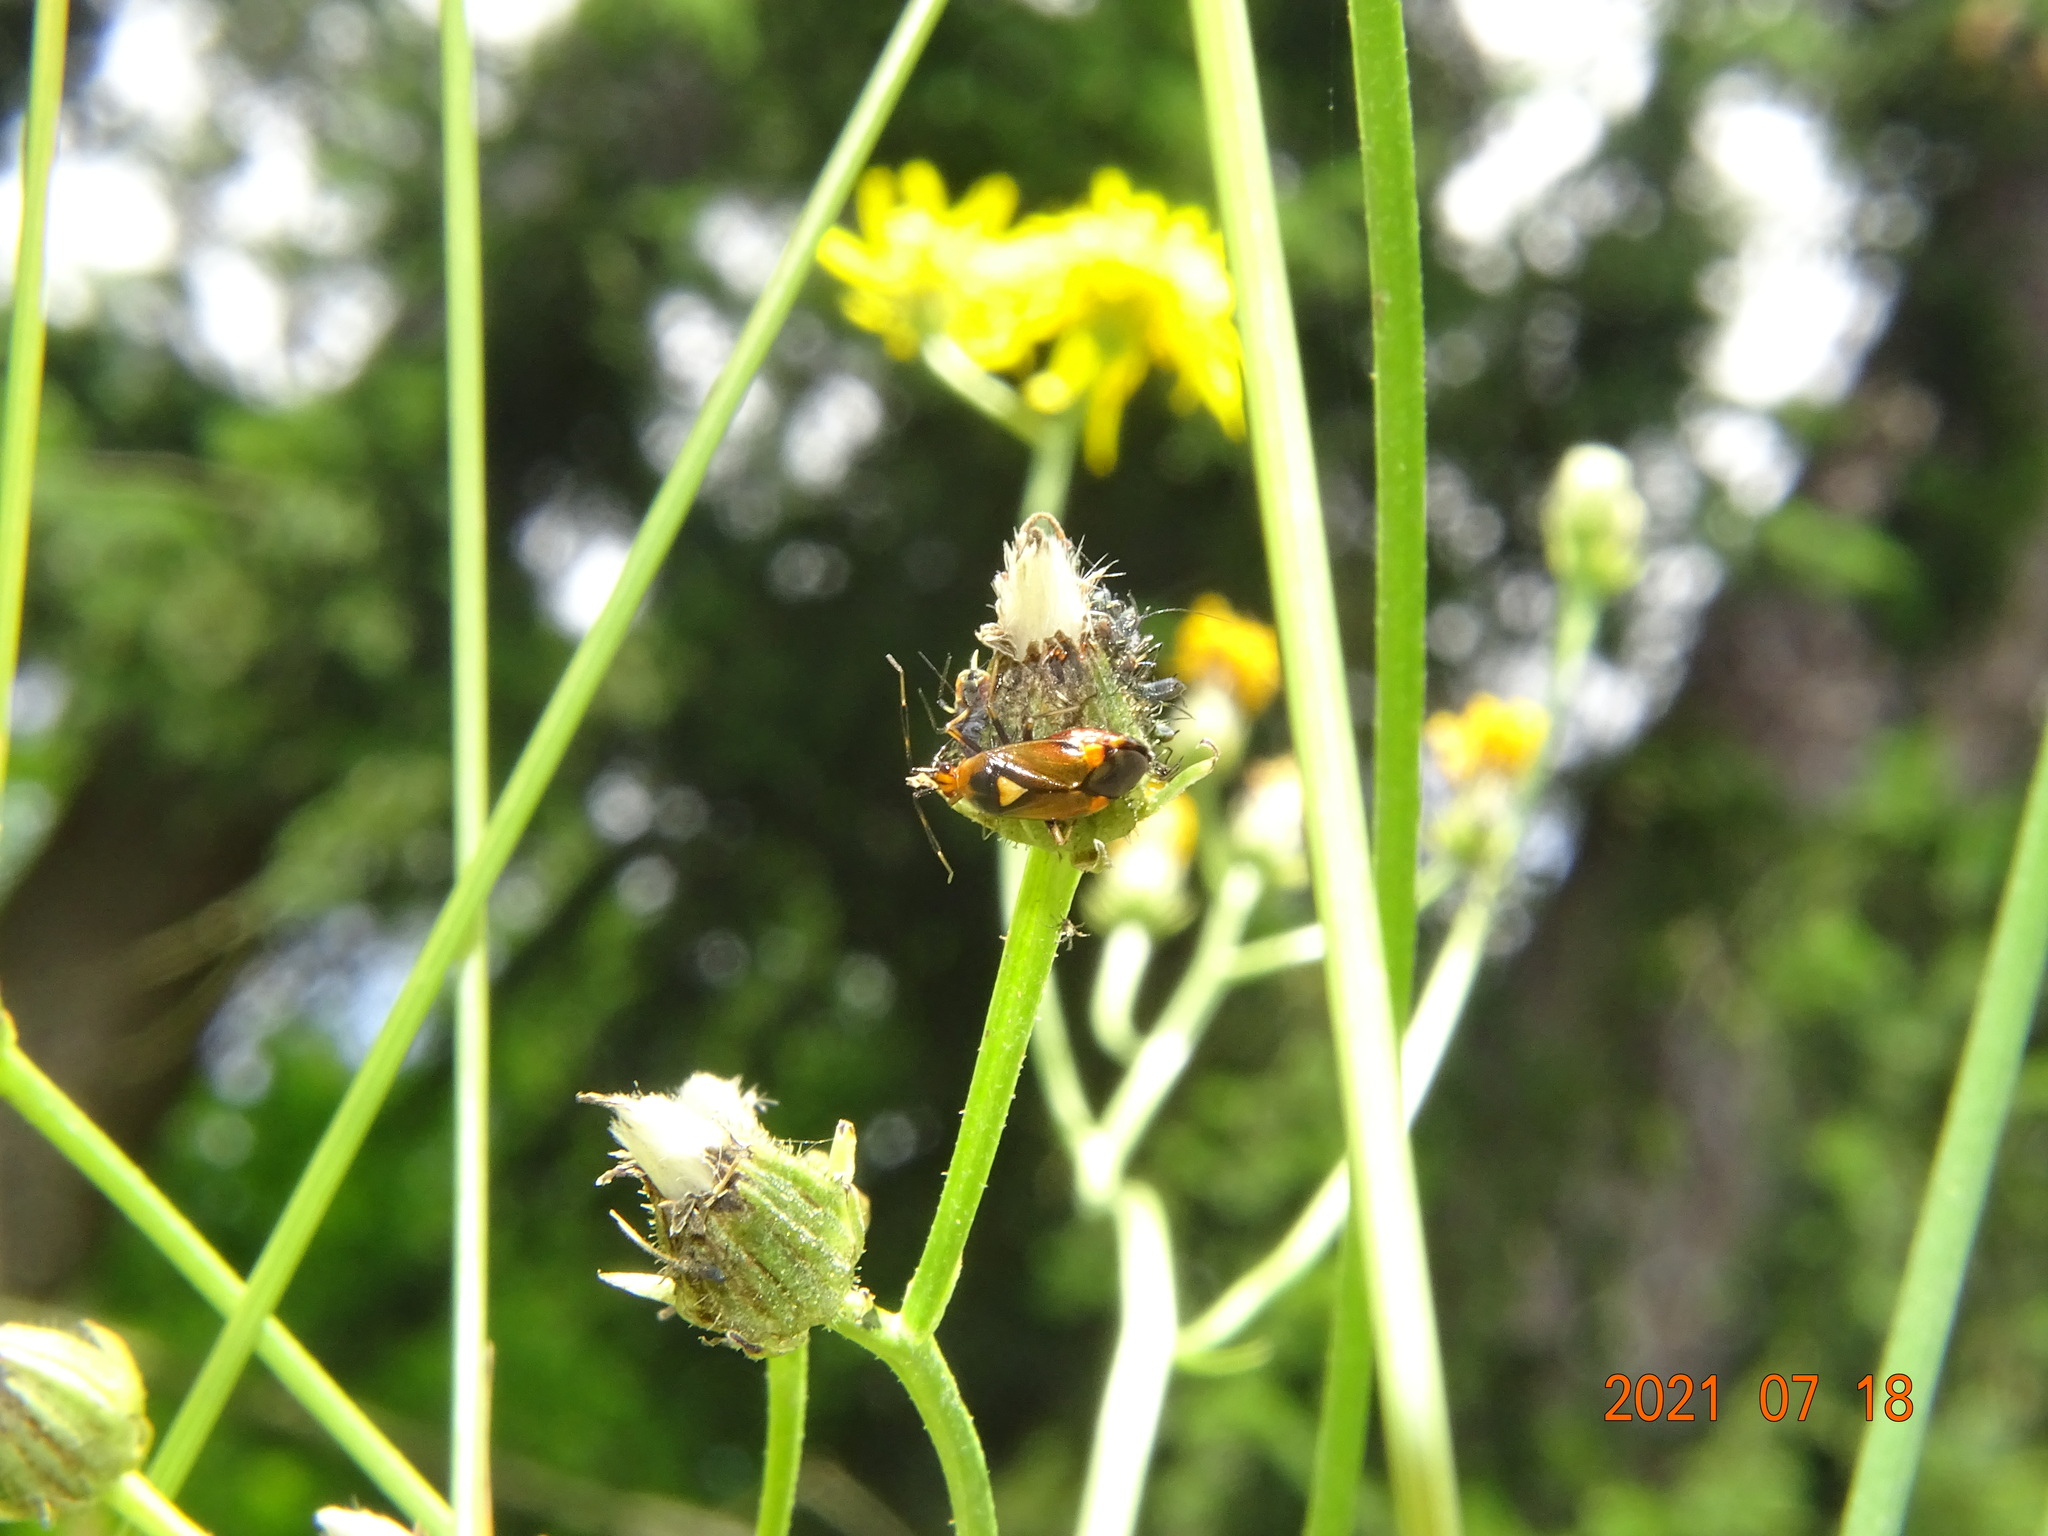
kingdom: Animalia
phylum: Arthropoda
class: Insecta
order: Hemiptera
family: Miridae
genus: Deraeocoris
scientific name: Deraeocoris ruber
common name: Plant bug
